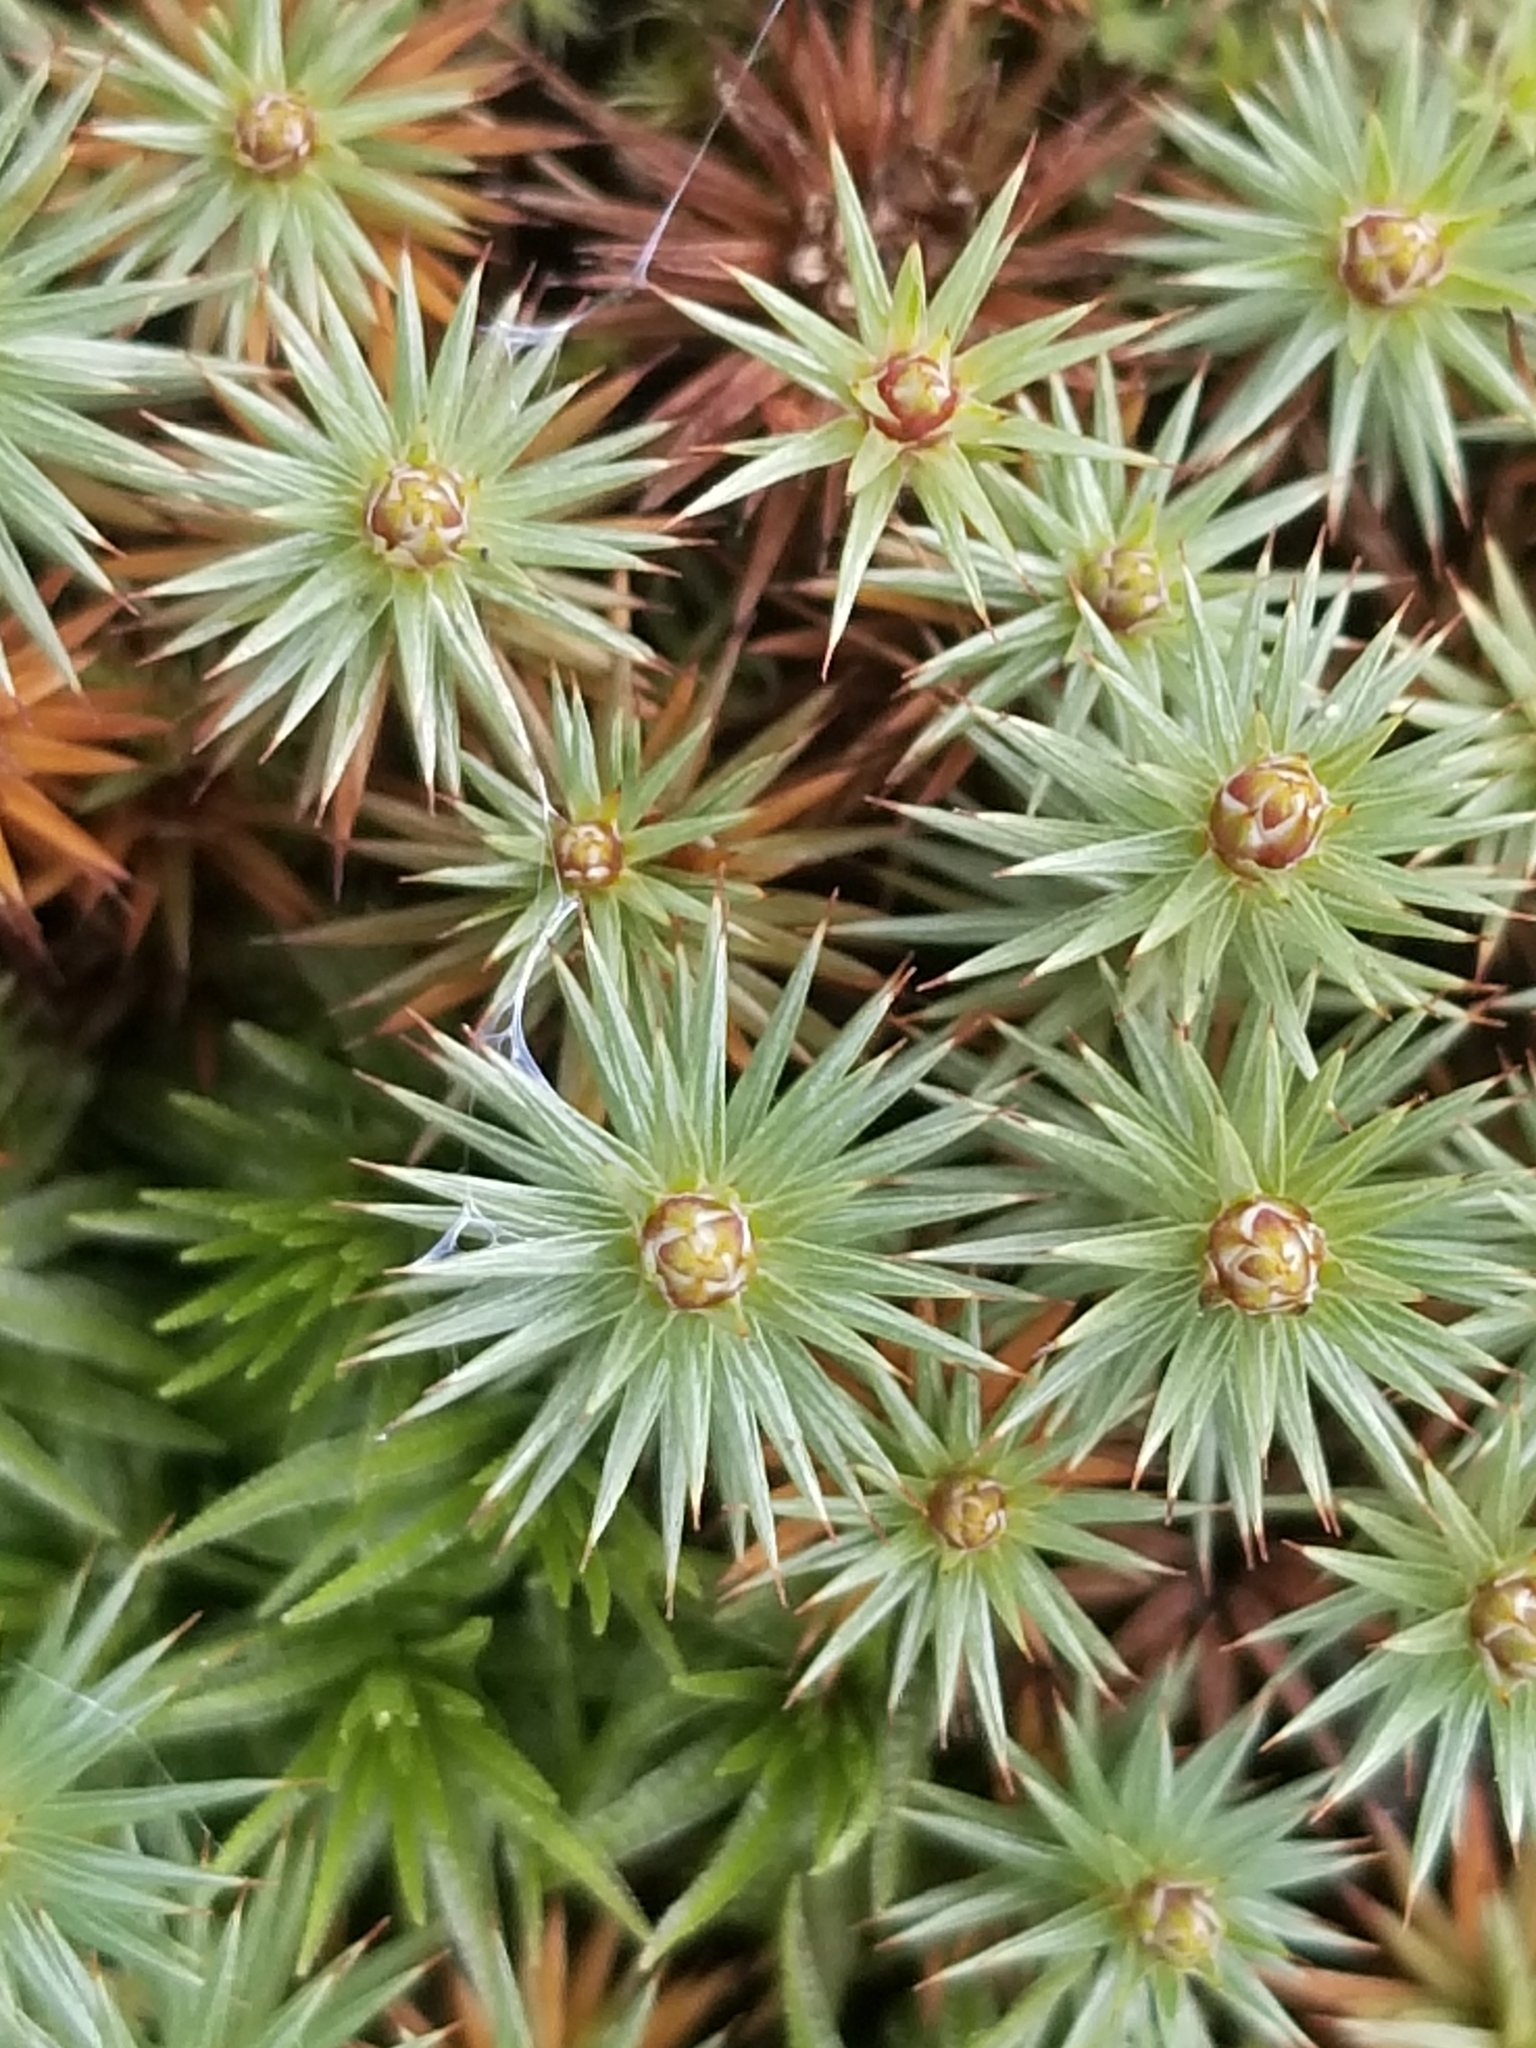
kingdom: Plantae
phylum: Bryophyta
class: Polytrichopsida
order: Polytrichales
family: Polytrichaceae
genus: Polytrichum
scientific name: Polytrichum juniperinum
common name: Juniper haircap moss
